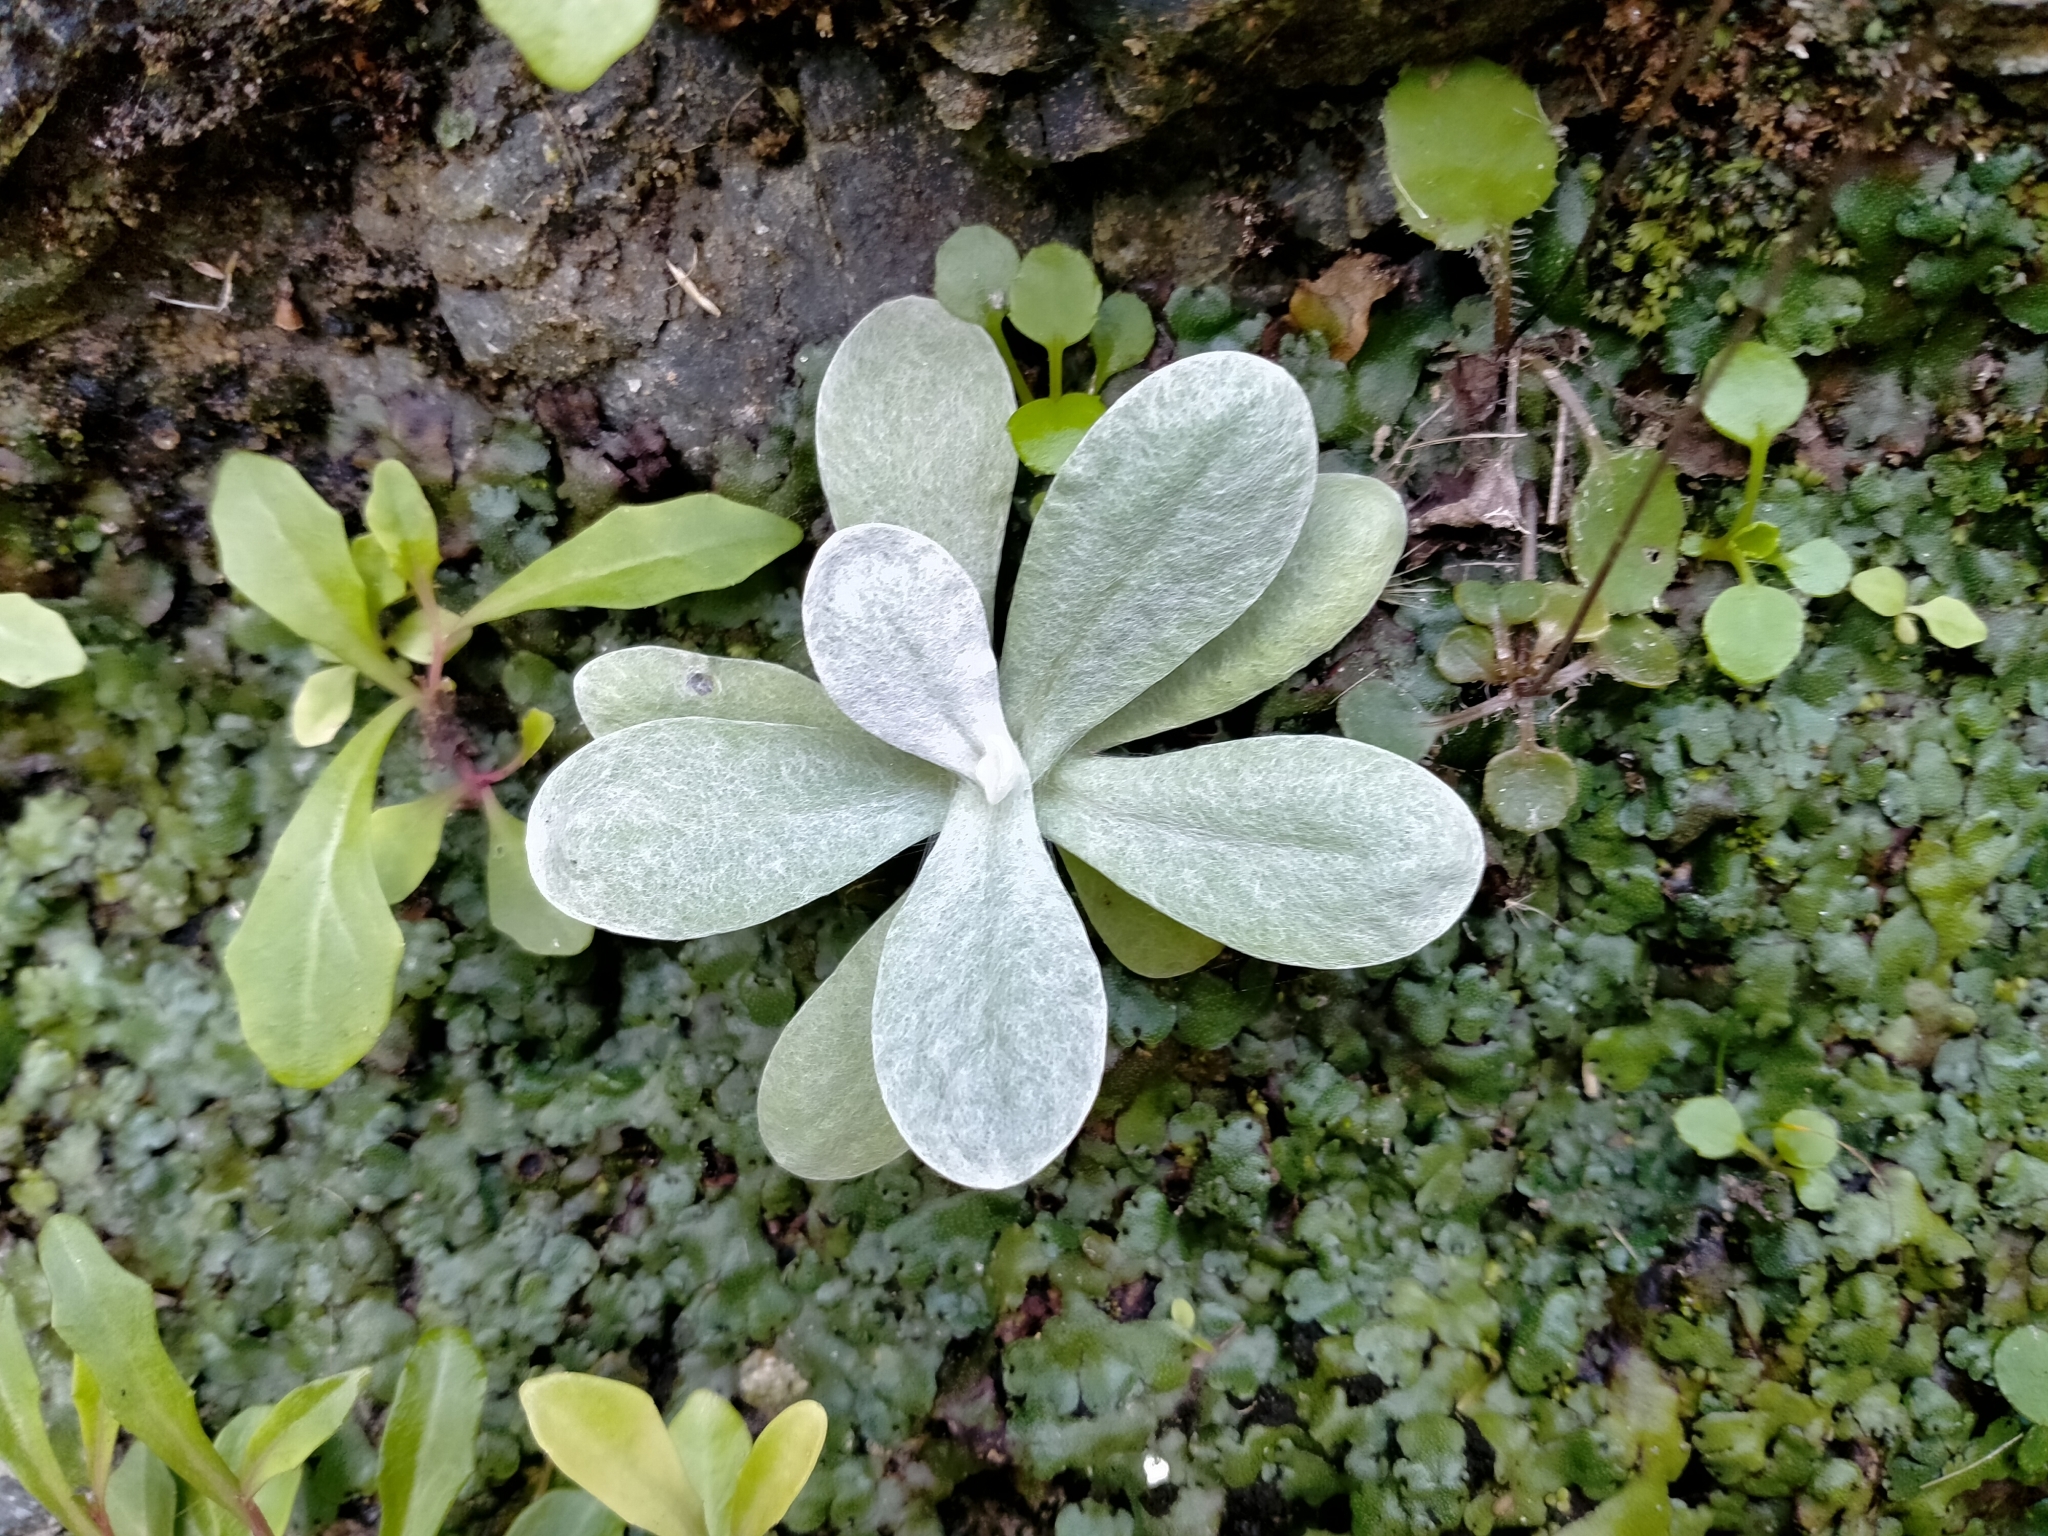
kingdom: Plantae
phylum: Tracheophyta
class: Magnoliopsida
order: Asterales
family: Asteraceae
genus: Helichrysum
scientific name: Helichrysum luteoalbum
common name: Daisy
